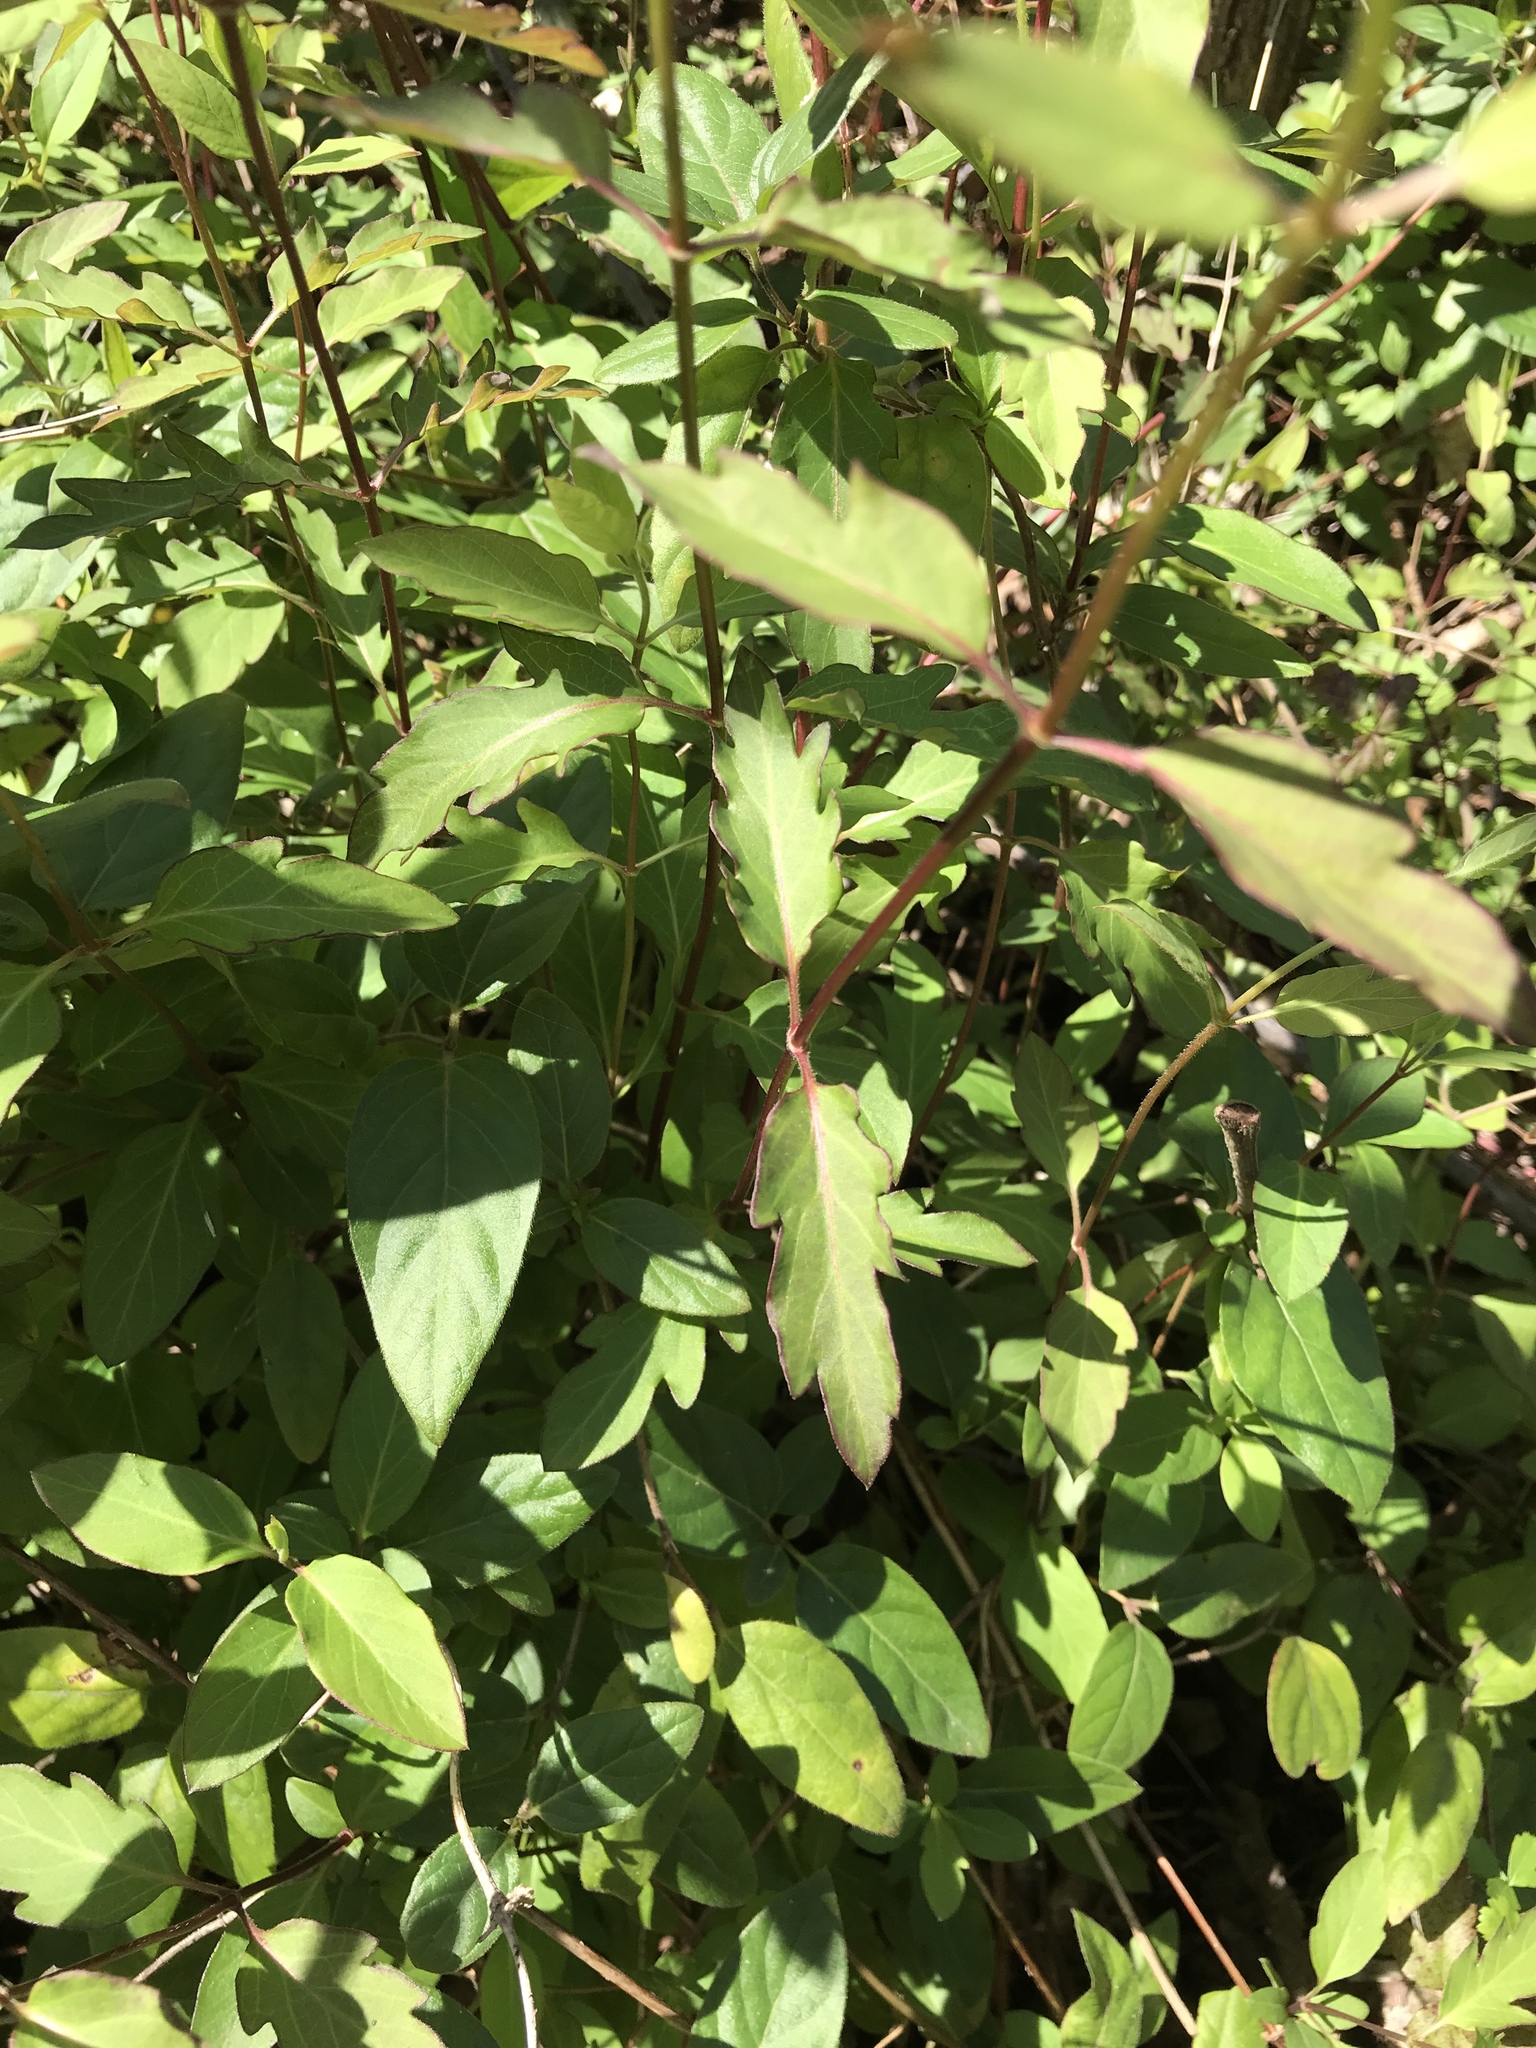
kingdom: Plantae
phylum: Tracheophyta
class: Magnoliopsida
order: Dipsacales
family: Caprifoliaceae
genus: Lonicera
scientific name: Lonicera japonica
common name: Japanese honeysuckle
